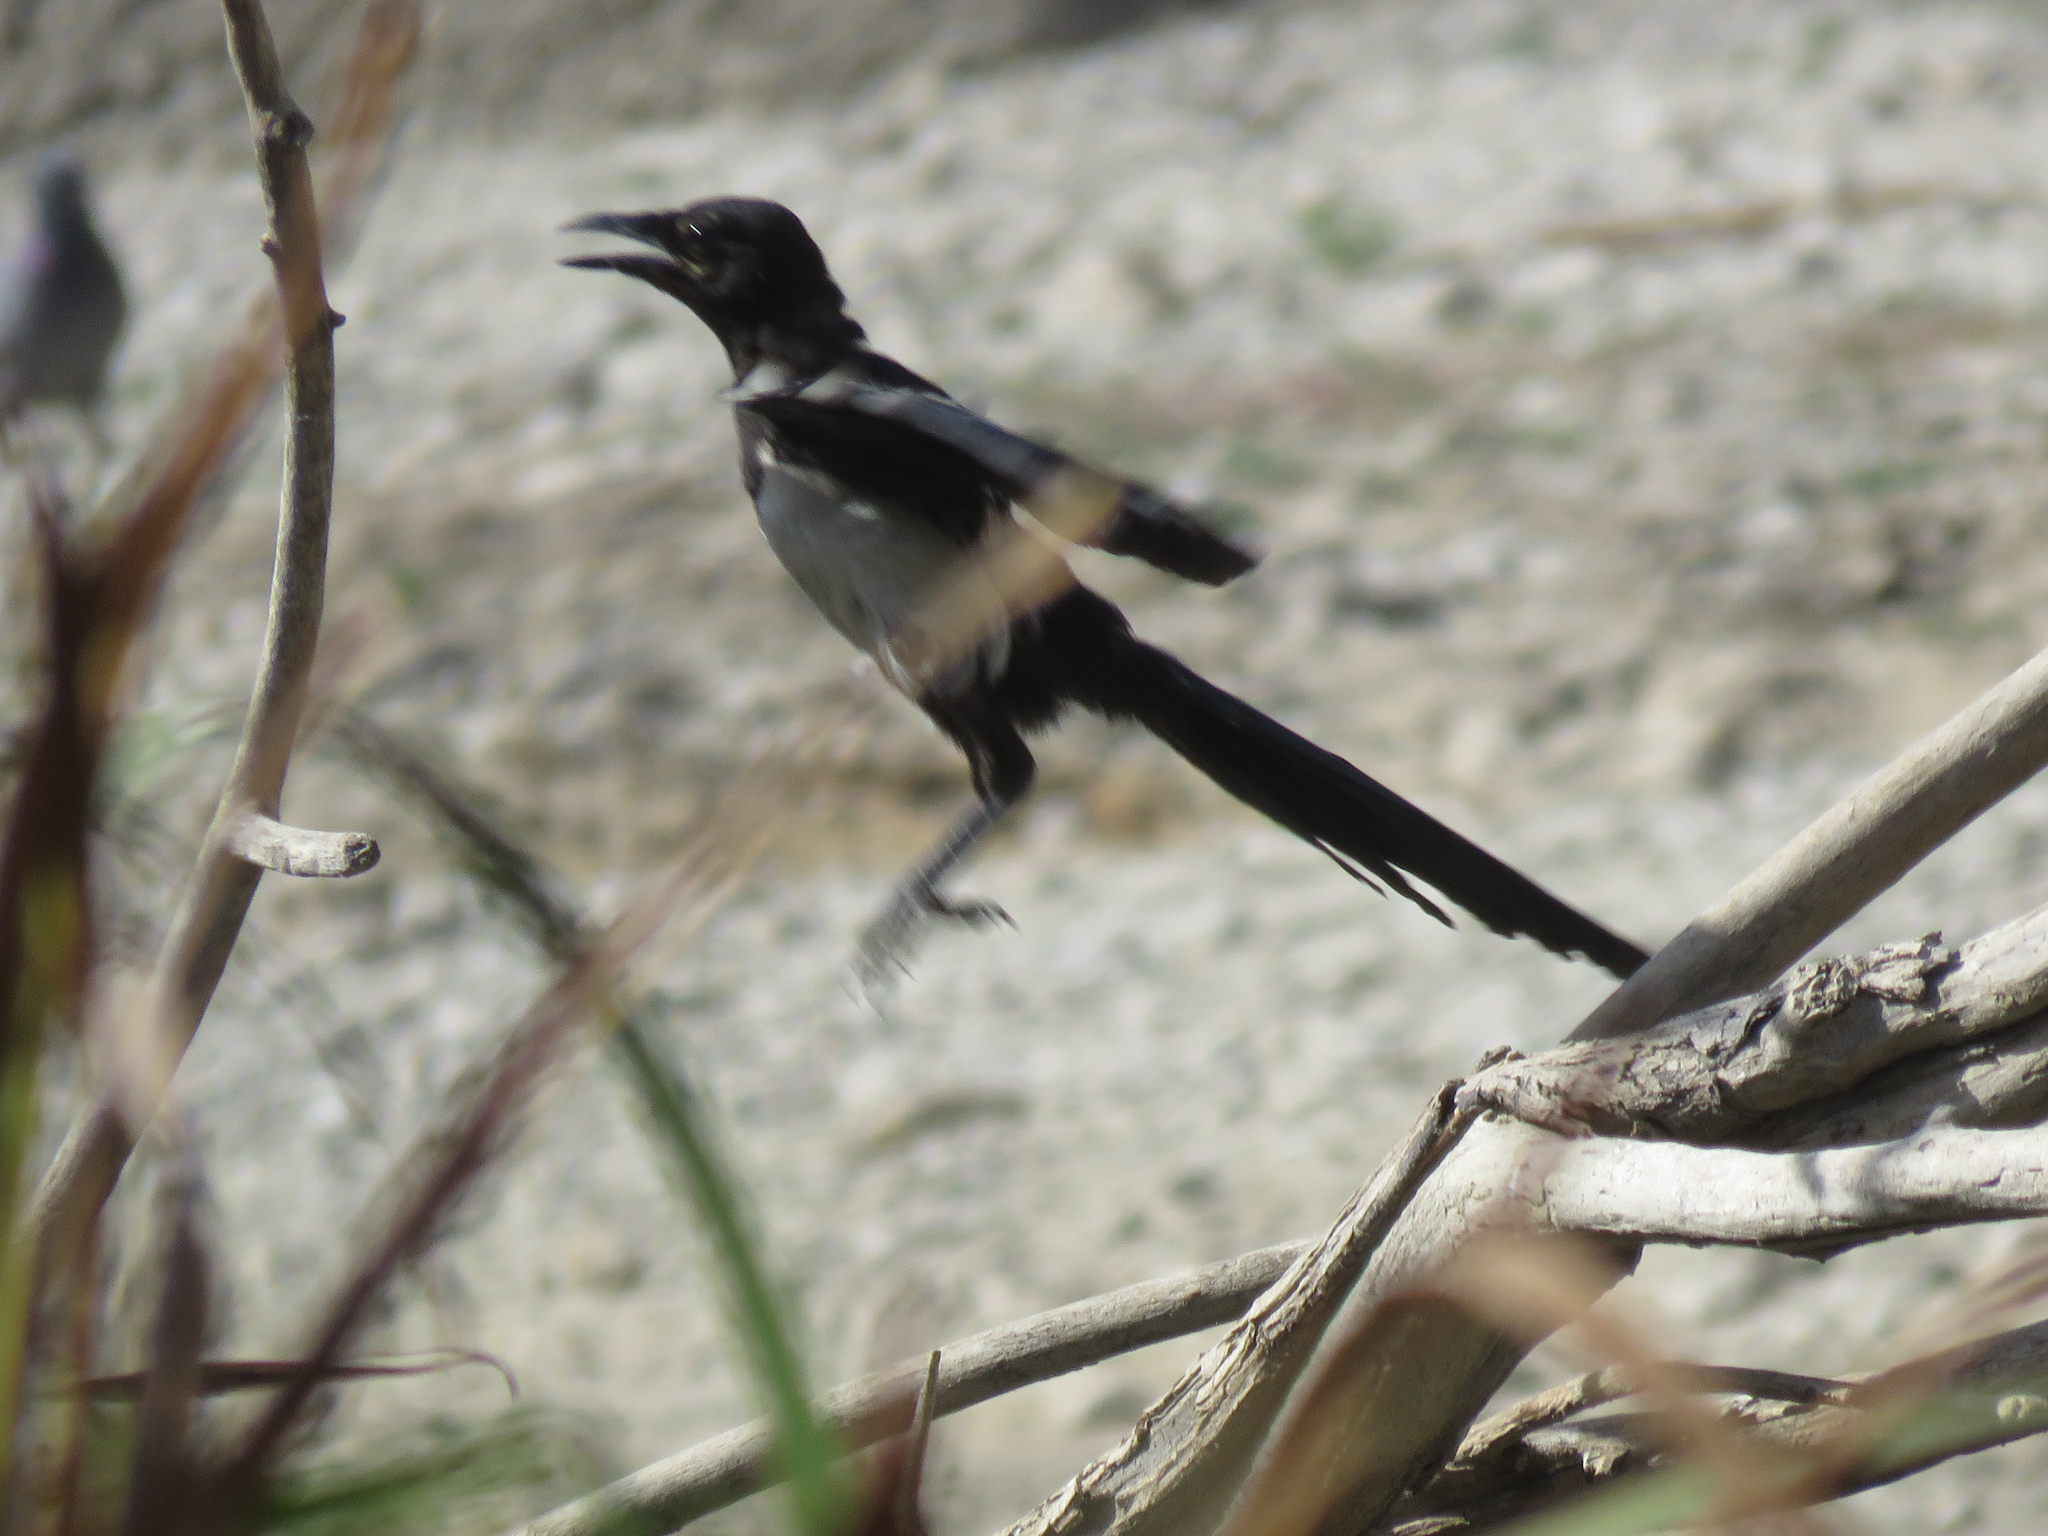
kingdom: Animalia
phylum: Chordata
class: Aves
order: Passeriformes
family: Corvidae
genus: Pica
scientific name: Pica pica
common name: Eurasian magpie
